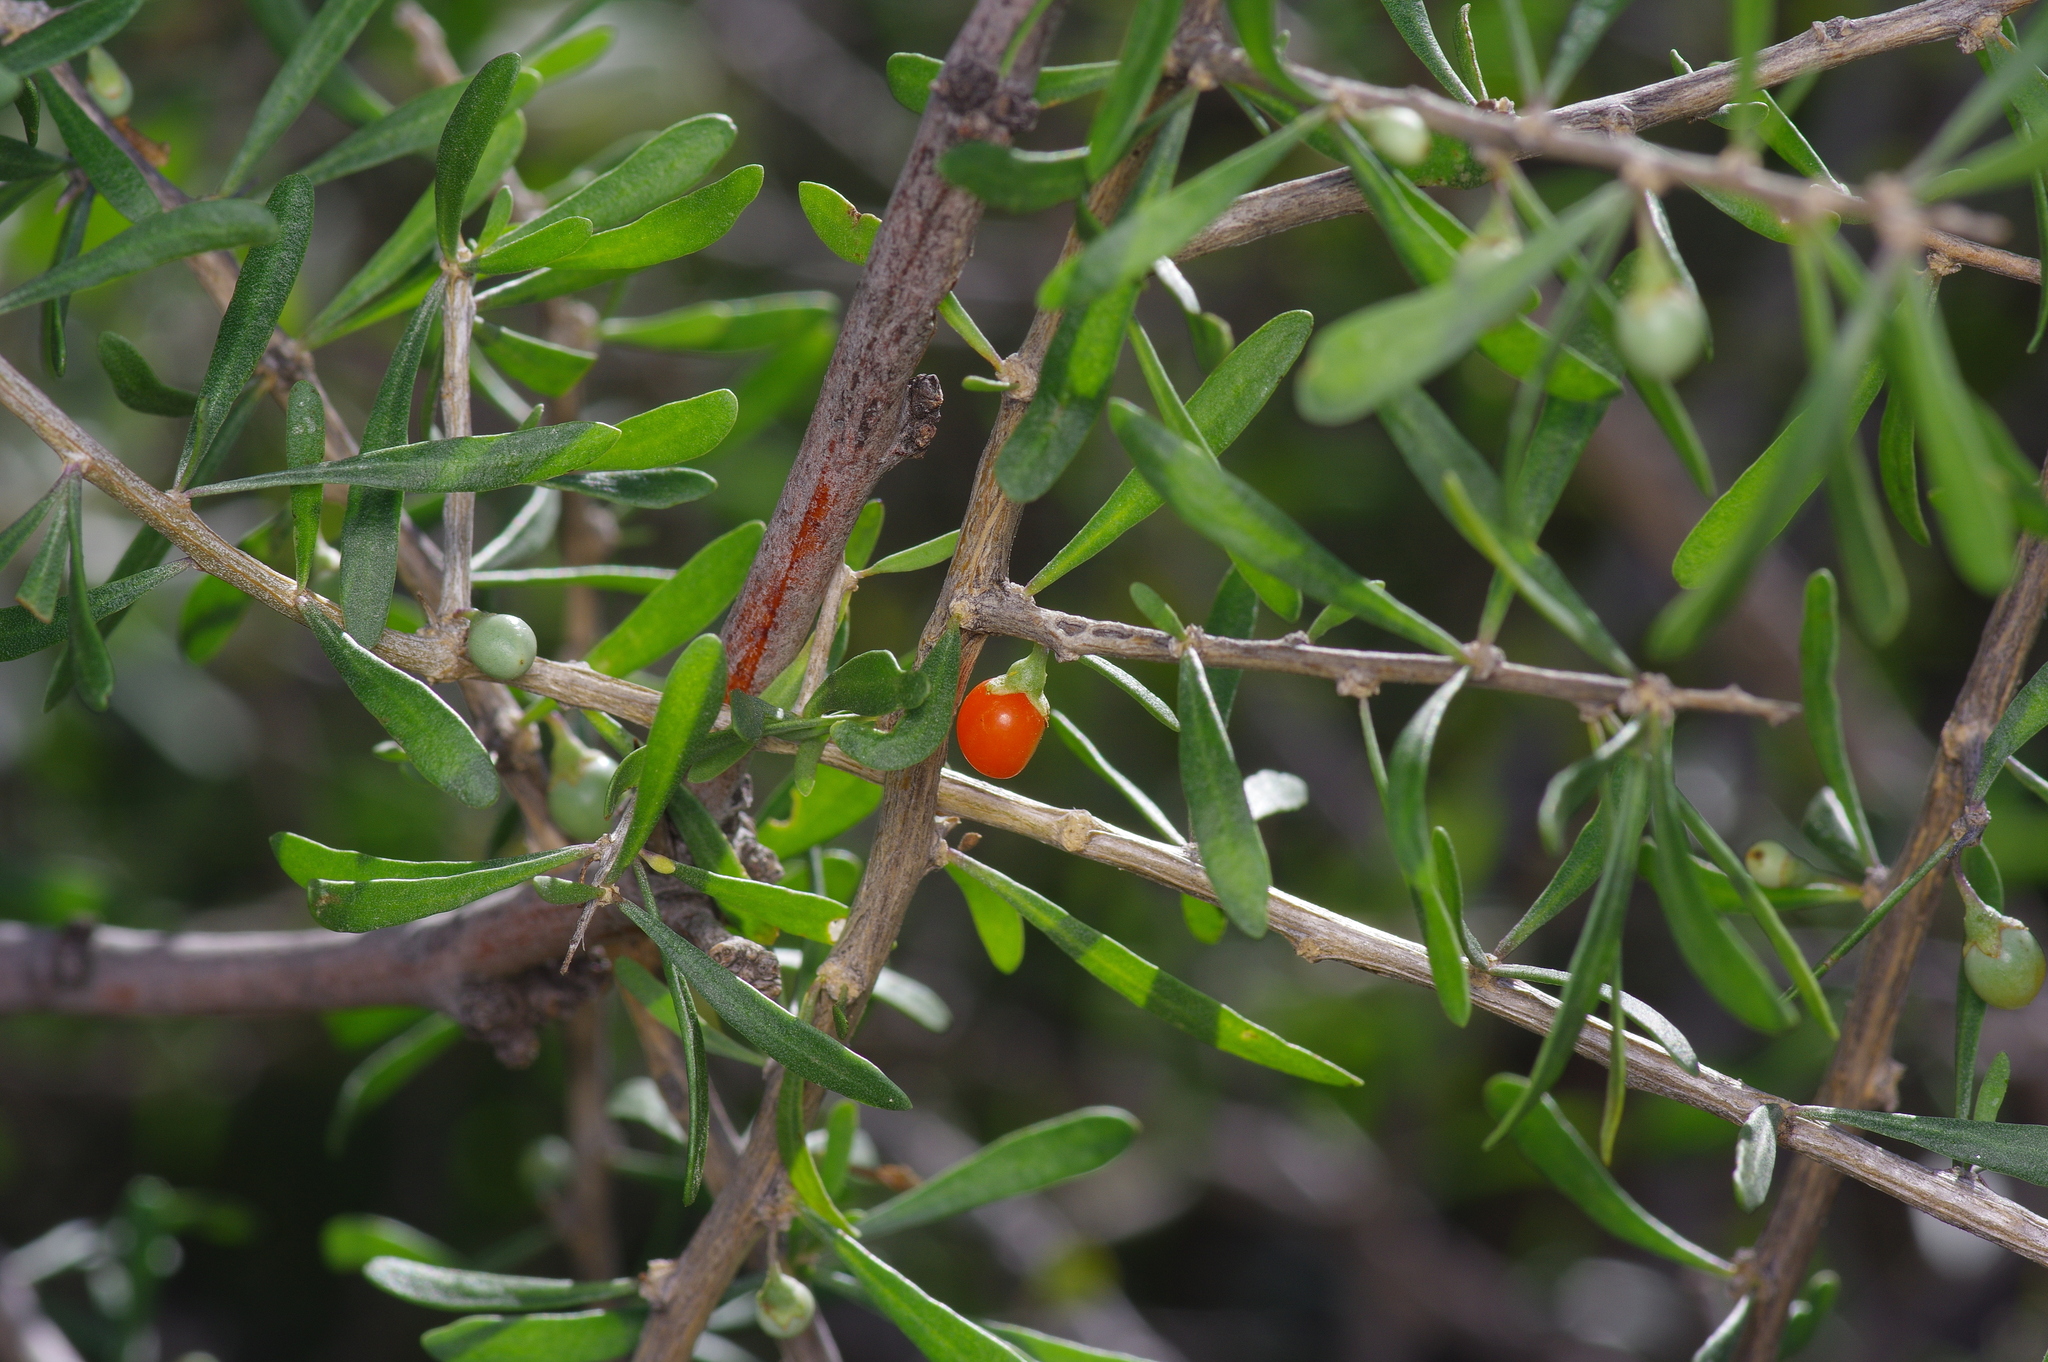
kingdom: Plantae
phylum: Tracheophyta
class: Magnoliopsida
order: Solanales
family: Solanaceae
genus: Lycium
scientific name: Lycium berlandieri
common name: Berlandier wolfberry
